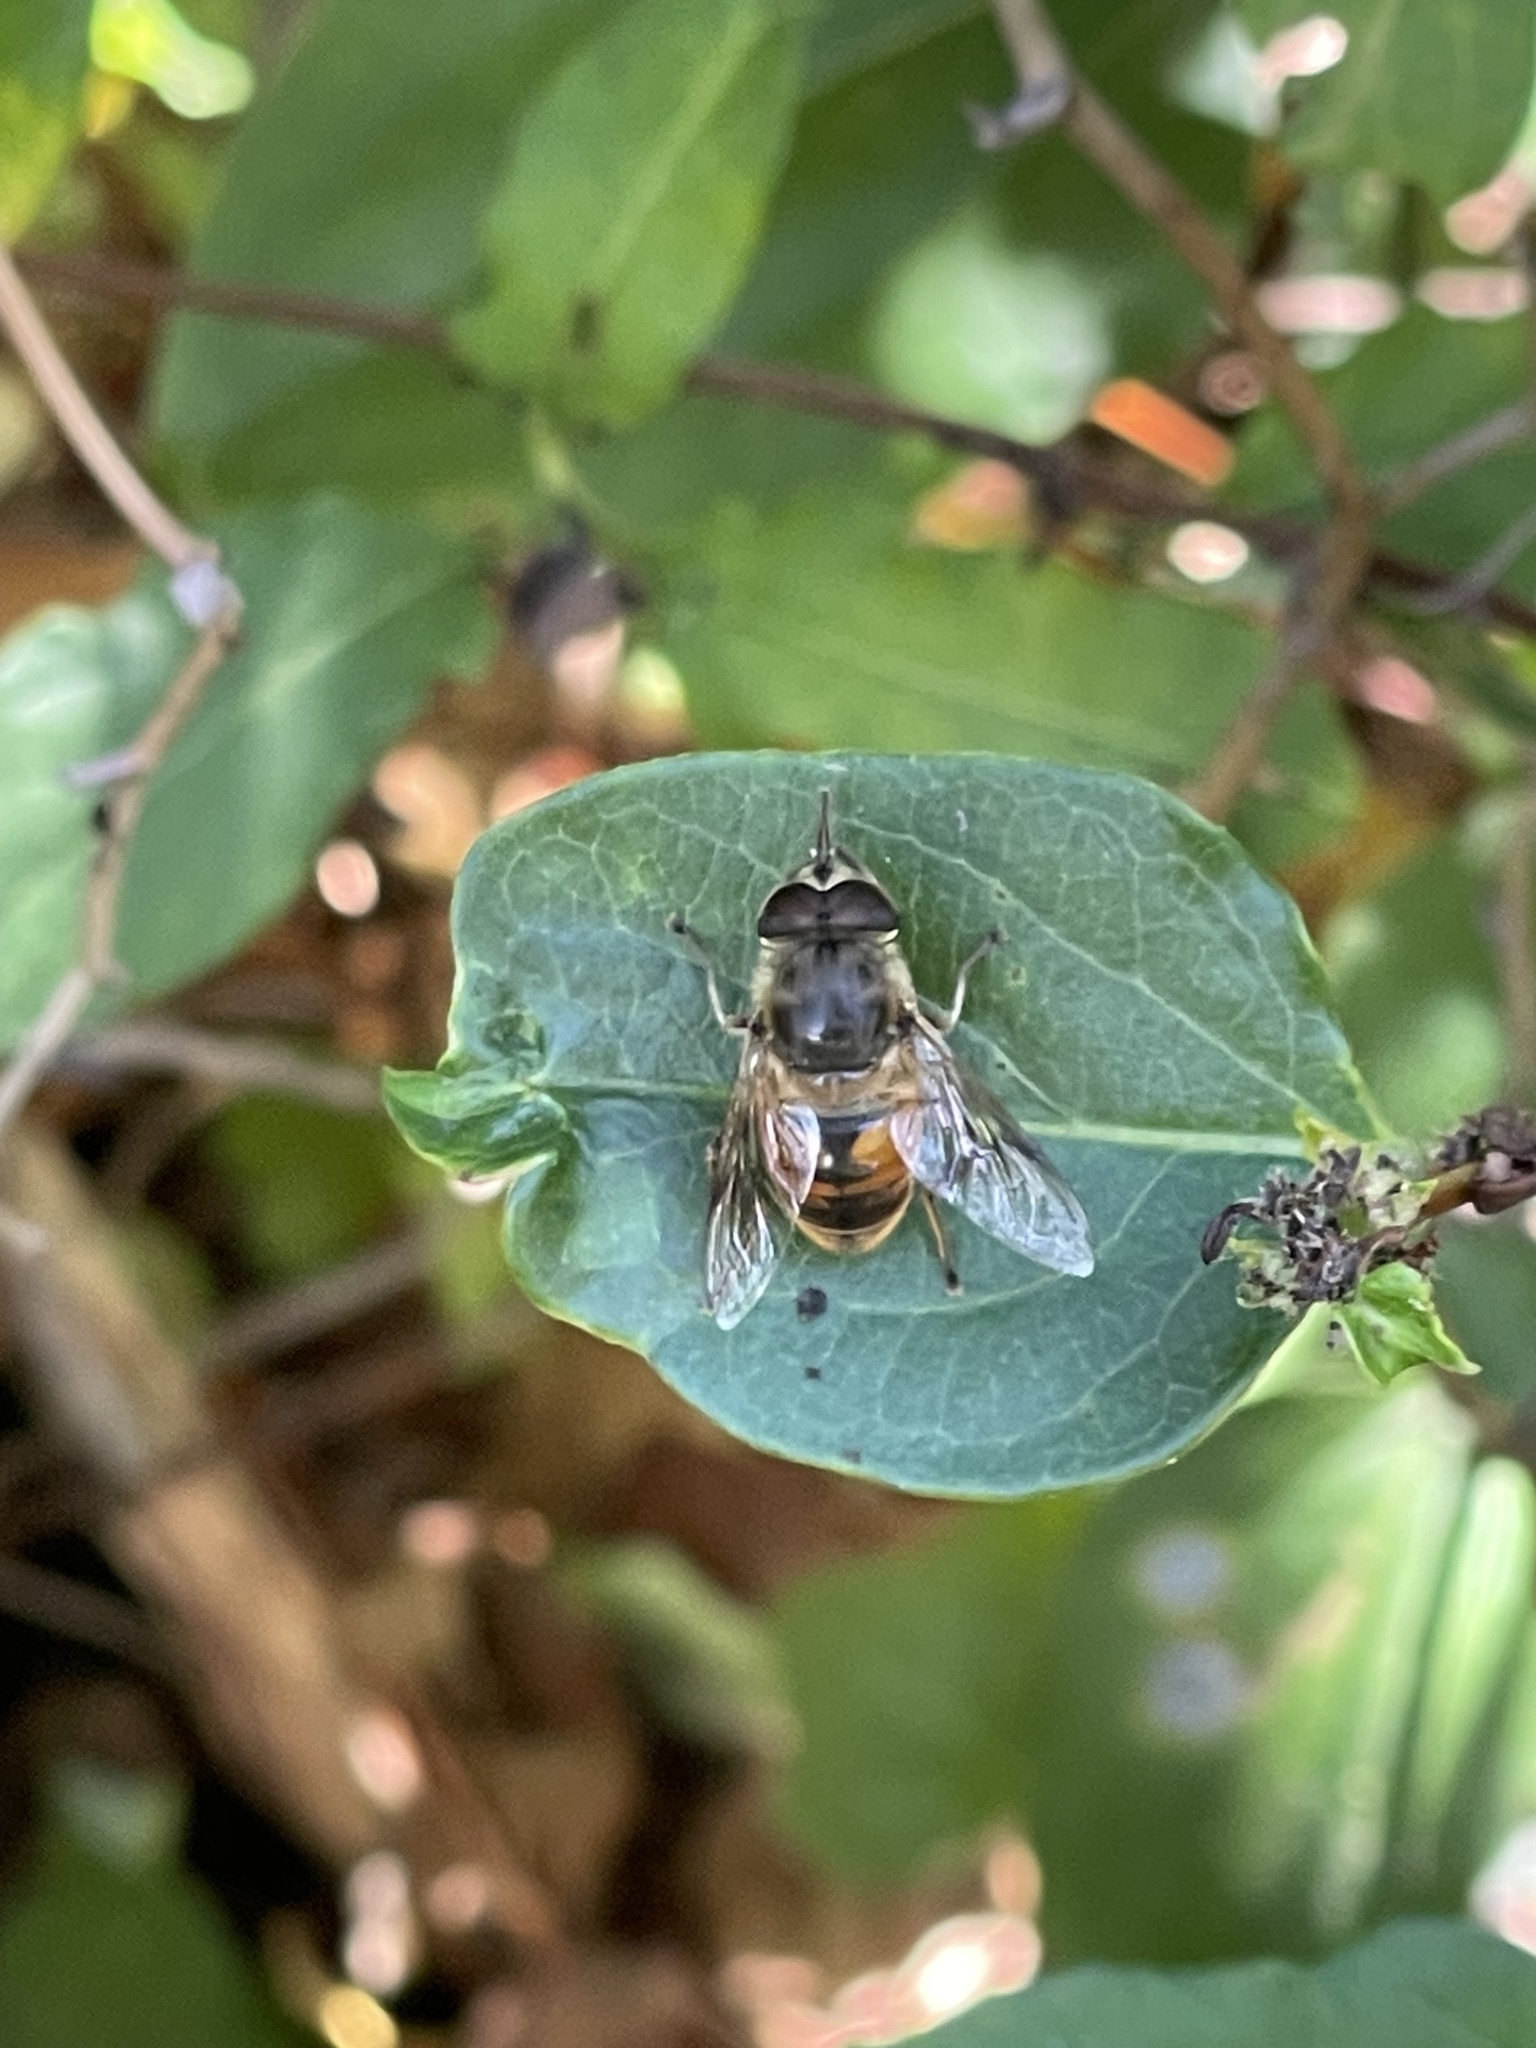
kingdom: Animalia
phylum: Arthropoda
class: Insecta
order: Diptera
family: Syrphidae
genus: Eristalis
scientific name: Eristalis tenax
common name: Drone fly
